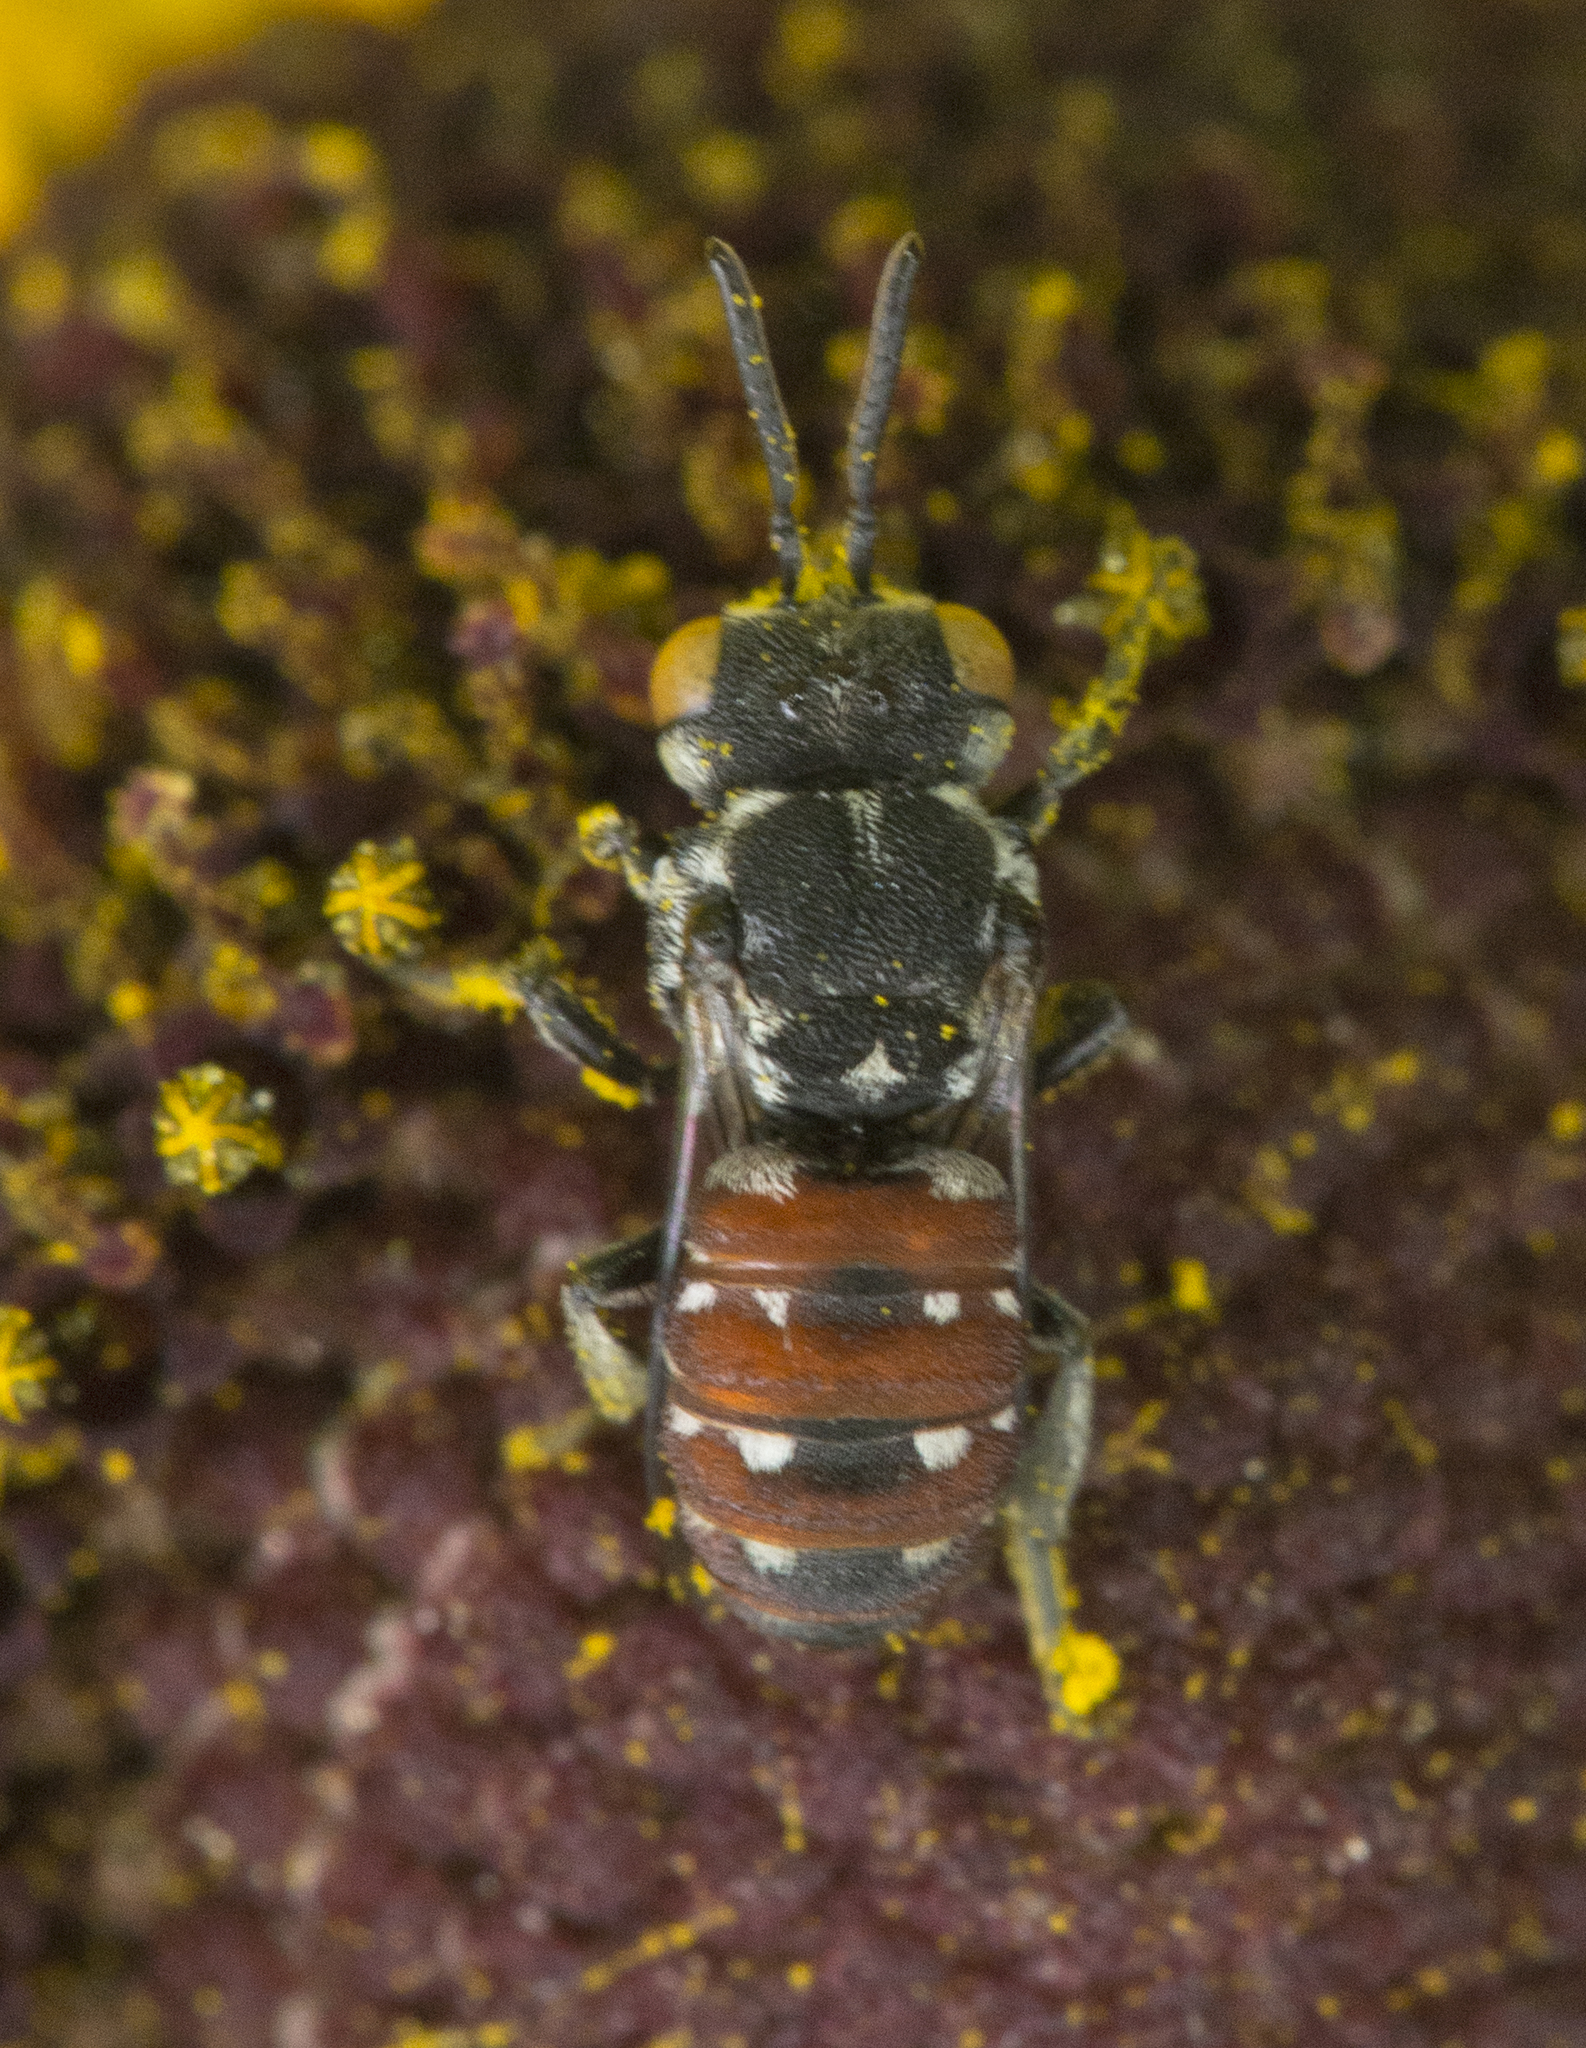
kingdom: Animalia
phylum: Arthropoda
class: Insecta
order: Hymenoptera
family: Apidae
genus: Holcopasites
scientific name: Holcopasites calliopsidis
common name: Calliopsis cuckoo nomad bee
